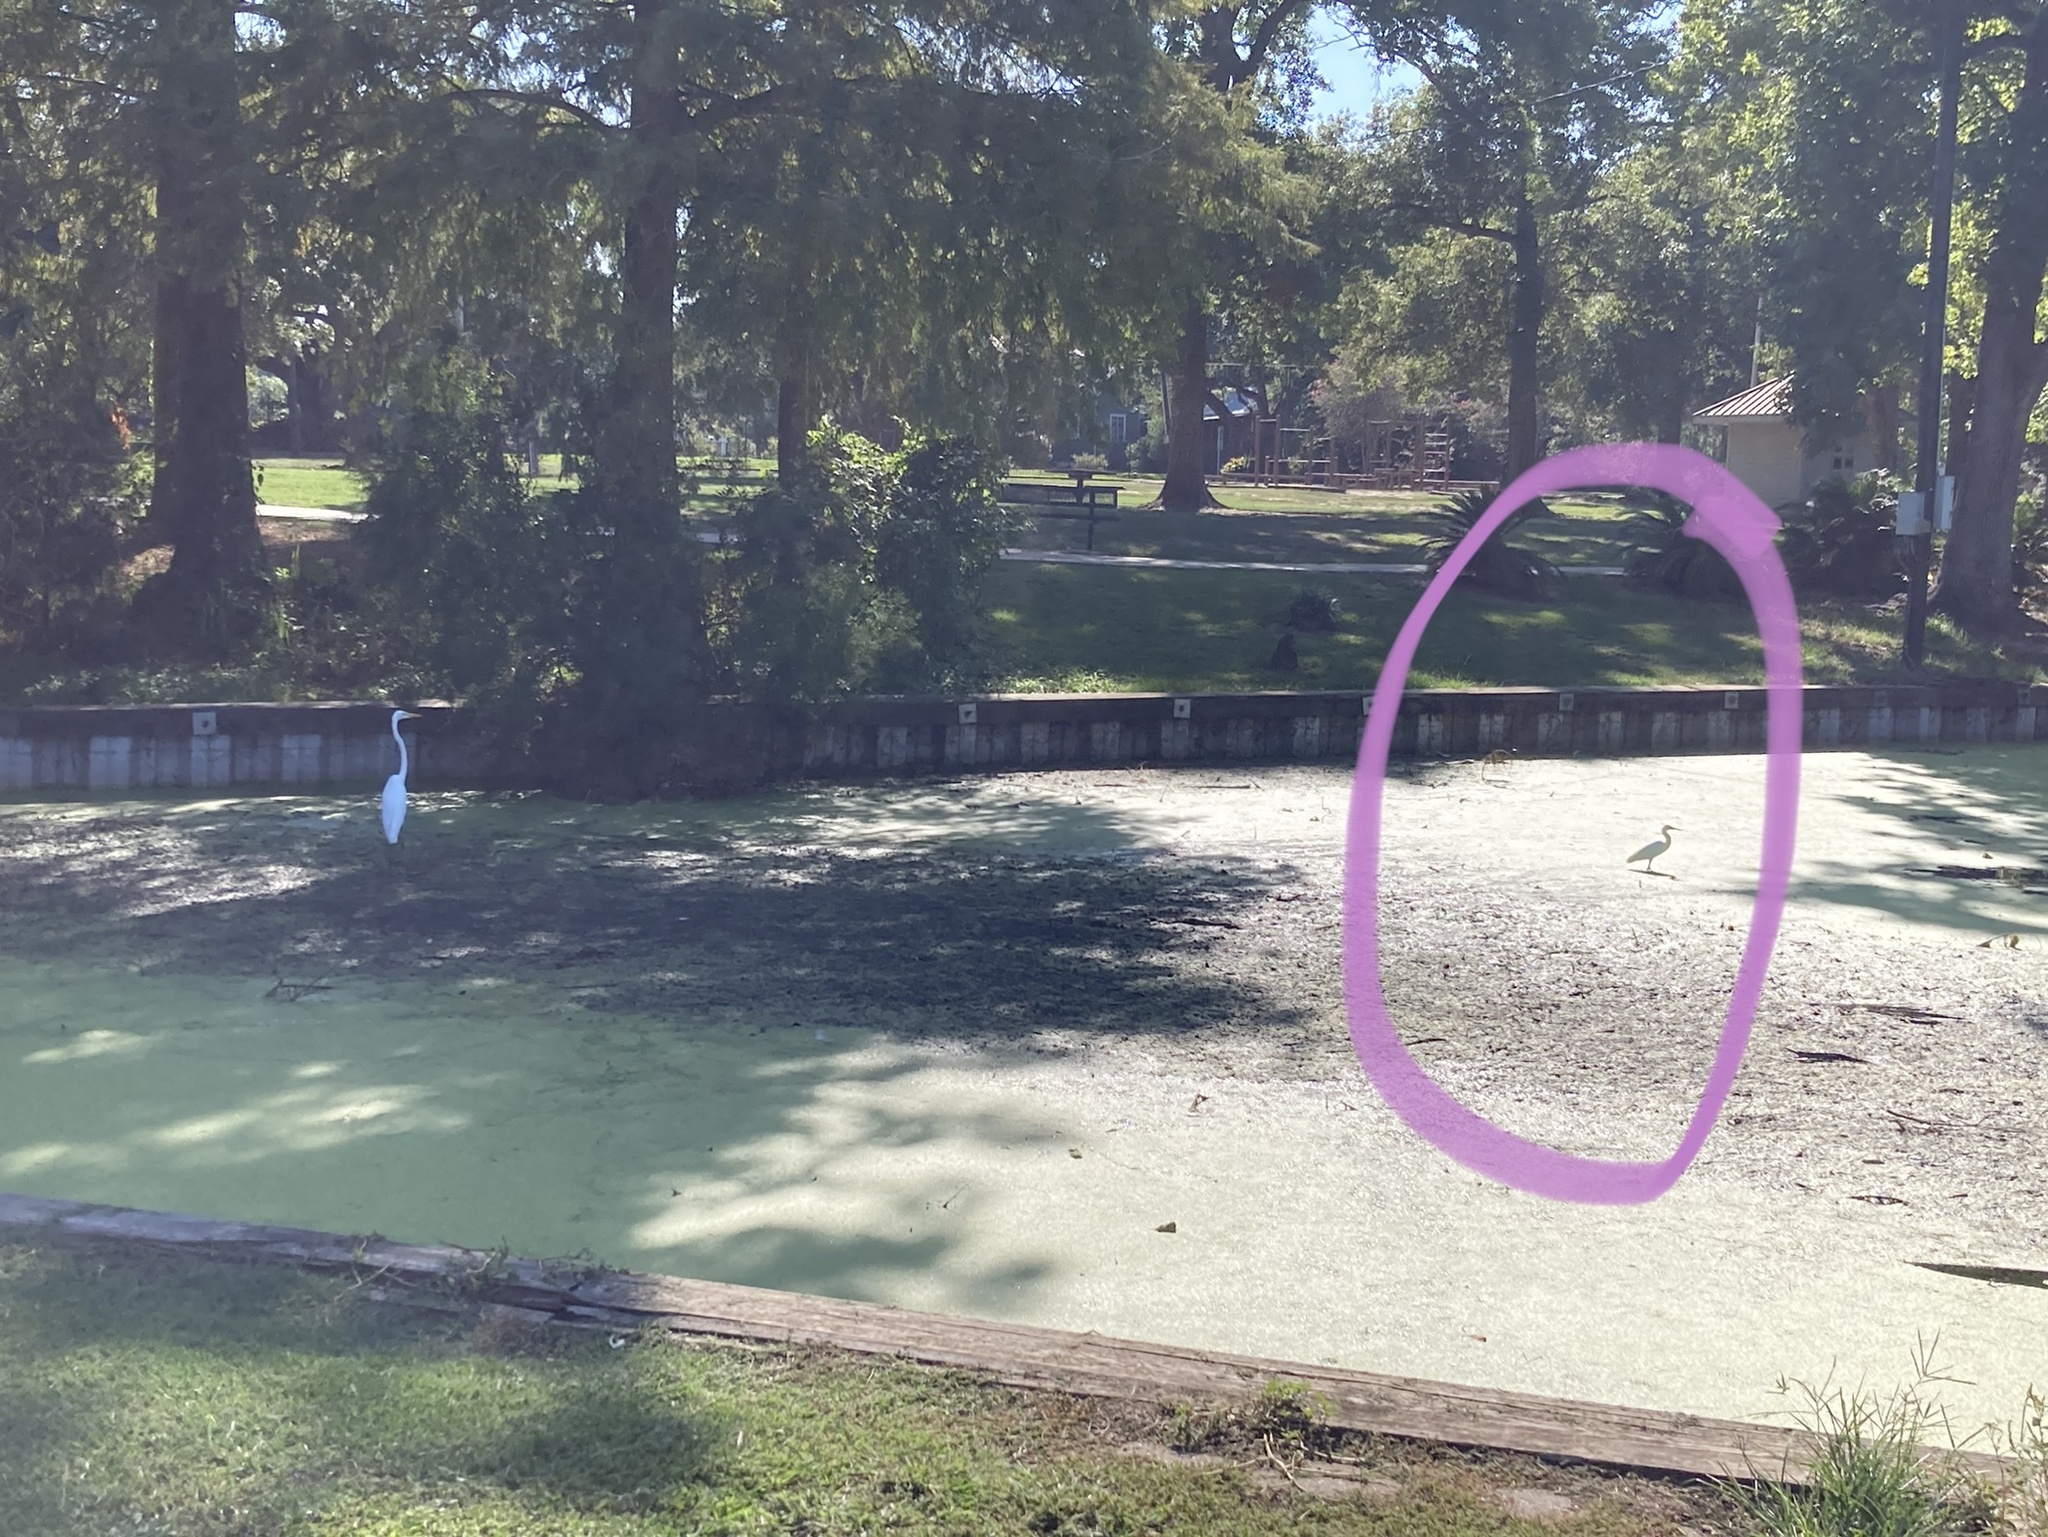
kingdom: Animalia
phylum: Chordata
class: Aves
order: Pelecaniformes
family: Ardeidae
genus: Egretta
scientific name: Egretta thula
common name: Snowy egret
